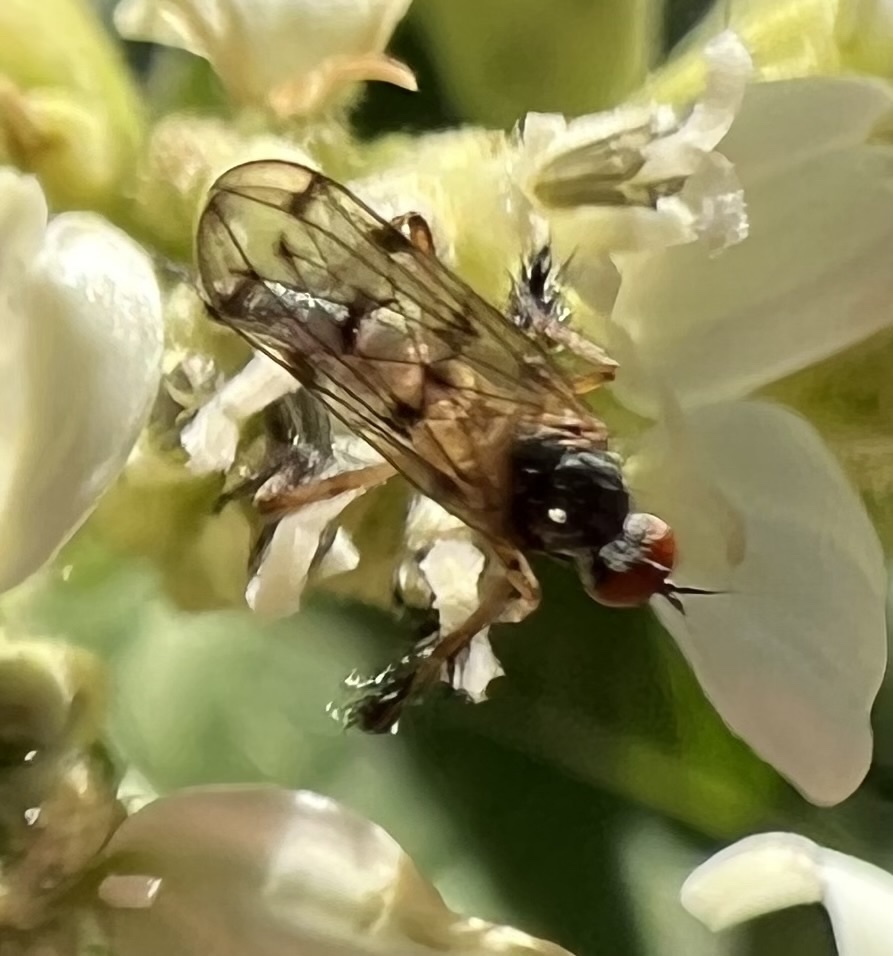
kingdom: Animalia
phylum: Arthropoda
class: Insecta
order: Diptera
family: Empididae
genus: Empis
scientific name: Empis clausa
